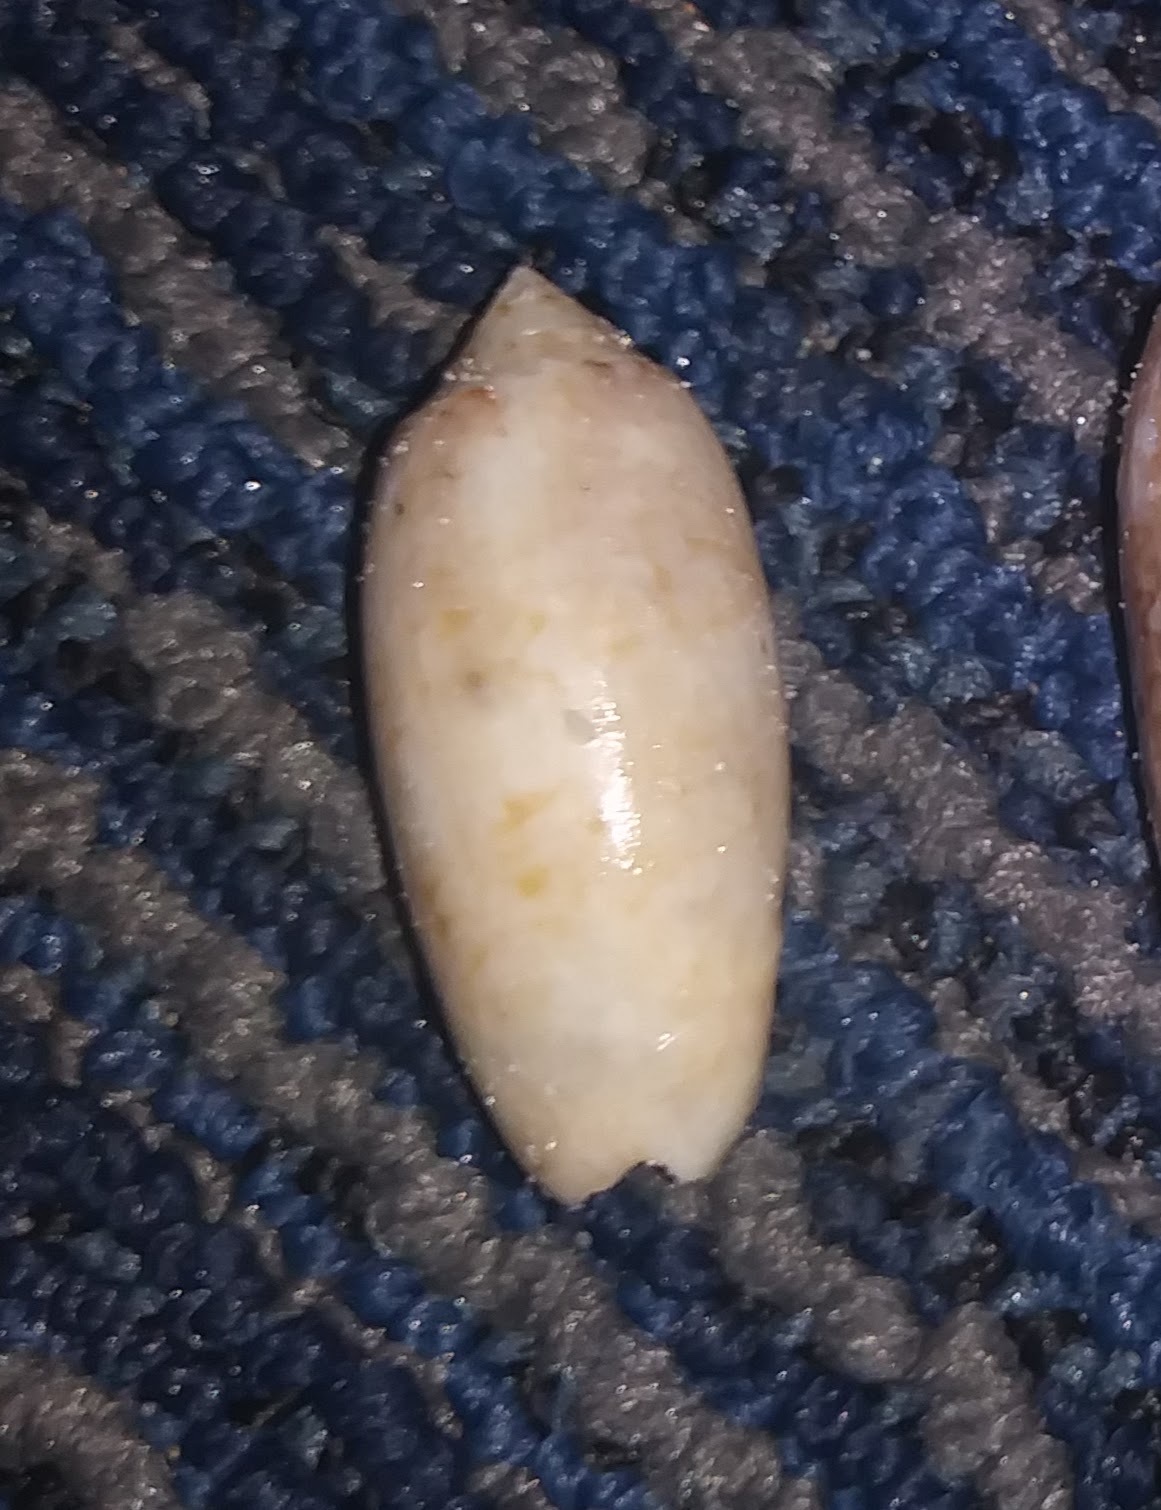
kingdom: Animalia
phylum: Mollusca
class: Gastropoda
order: Neogastropoda
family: Olividae
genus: Oliva
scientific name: Oliva sayana
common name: Lettered olive
